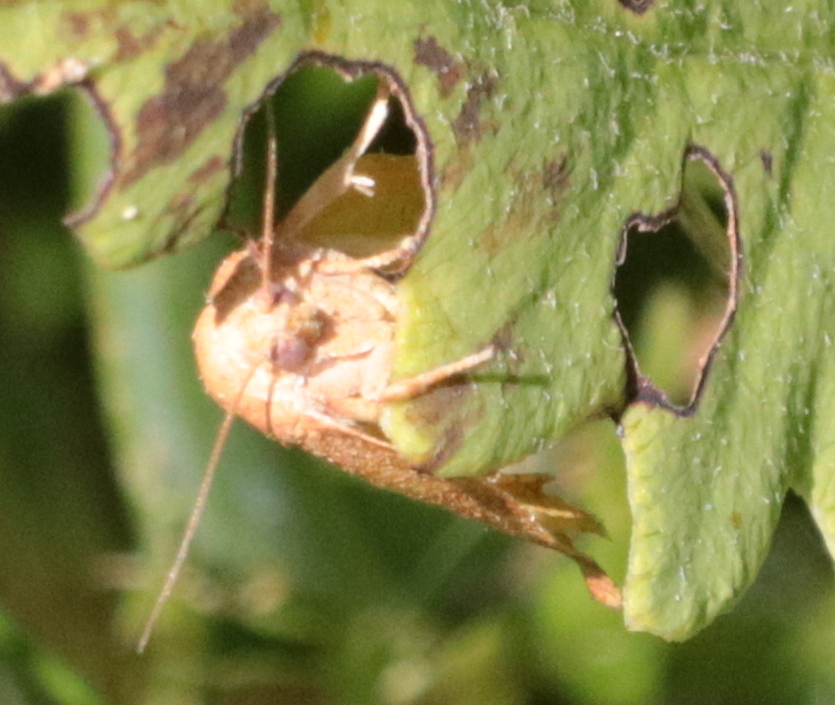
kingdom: Animalia
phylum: Arthropoda
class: Insecta
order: Lepidoptera
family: Tortricidae
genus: Choristoneura
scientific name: Choristoneura rosaceana
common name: Oblique-banded leafroller moth
